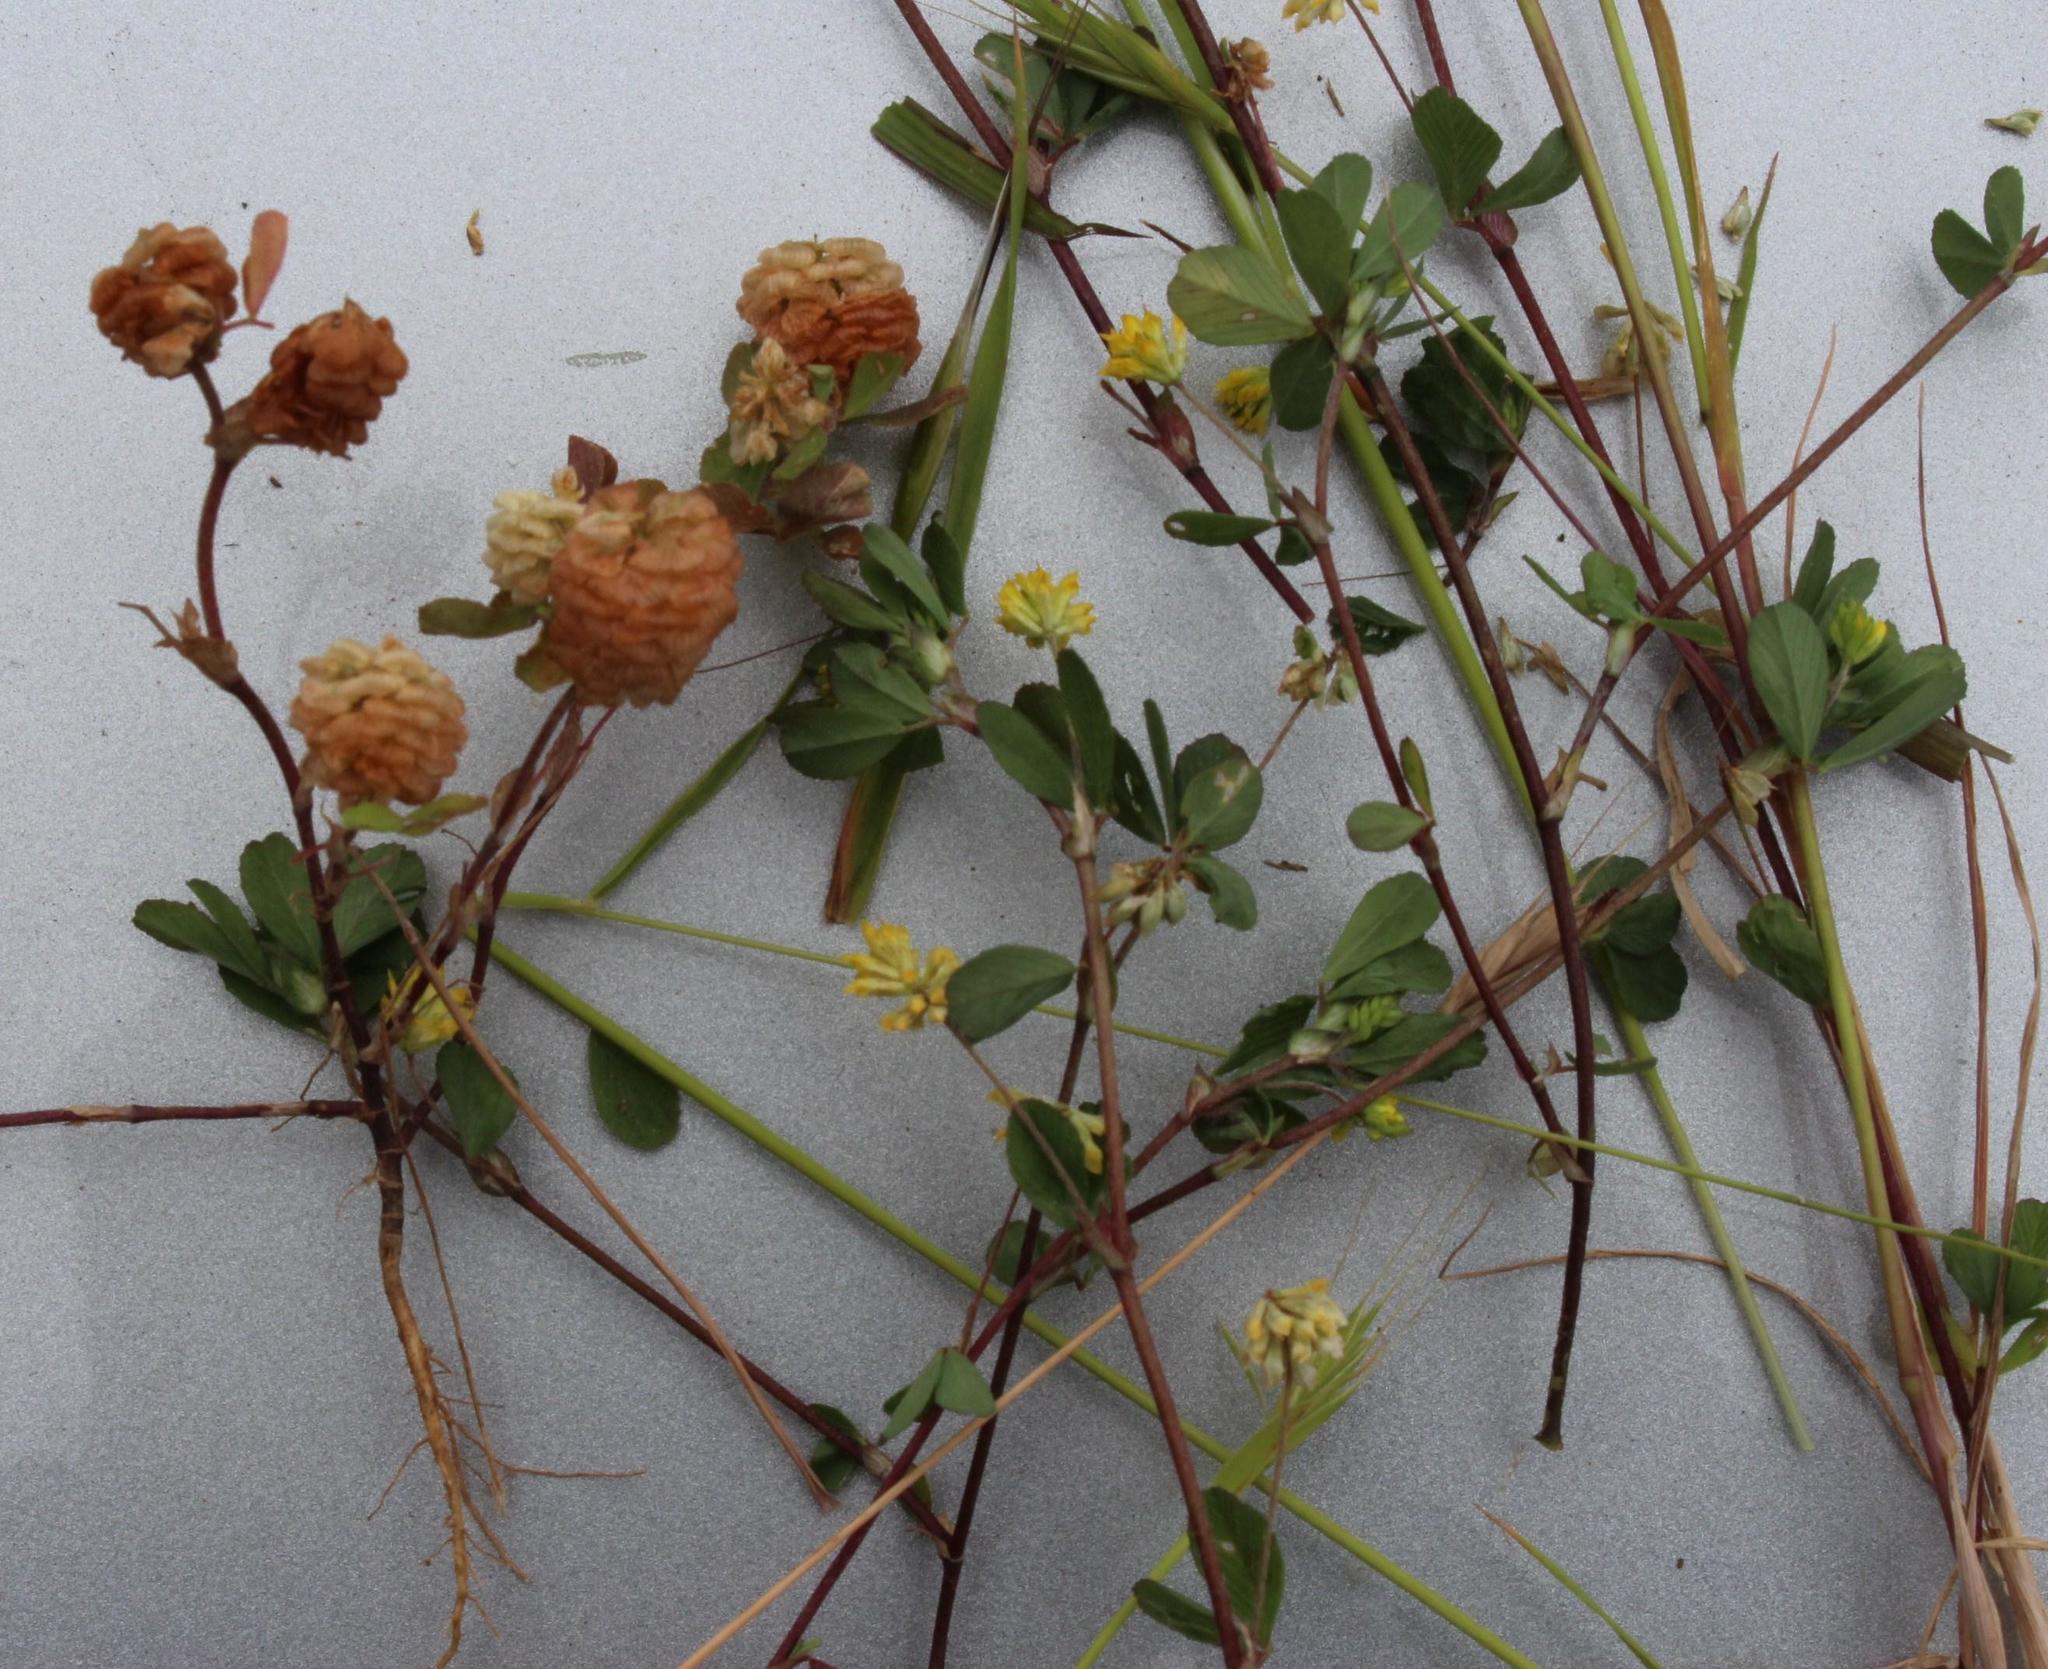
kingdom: Plantae
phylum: Tracheophyta
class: Magnoliopsida
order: Fabales
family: Fabaceae
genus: Trifolium
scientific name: Trifolium dubium
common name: Suckling clover
